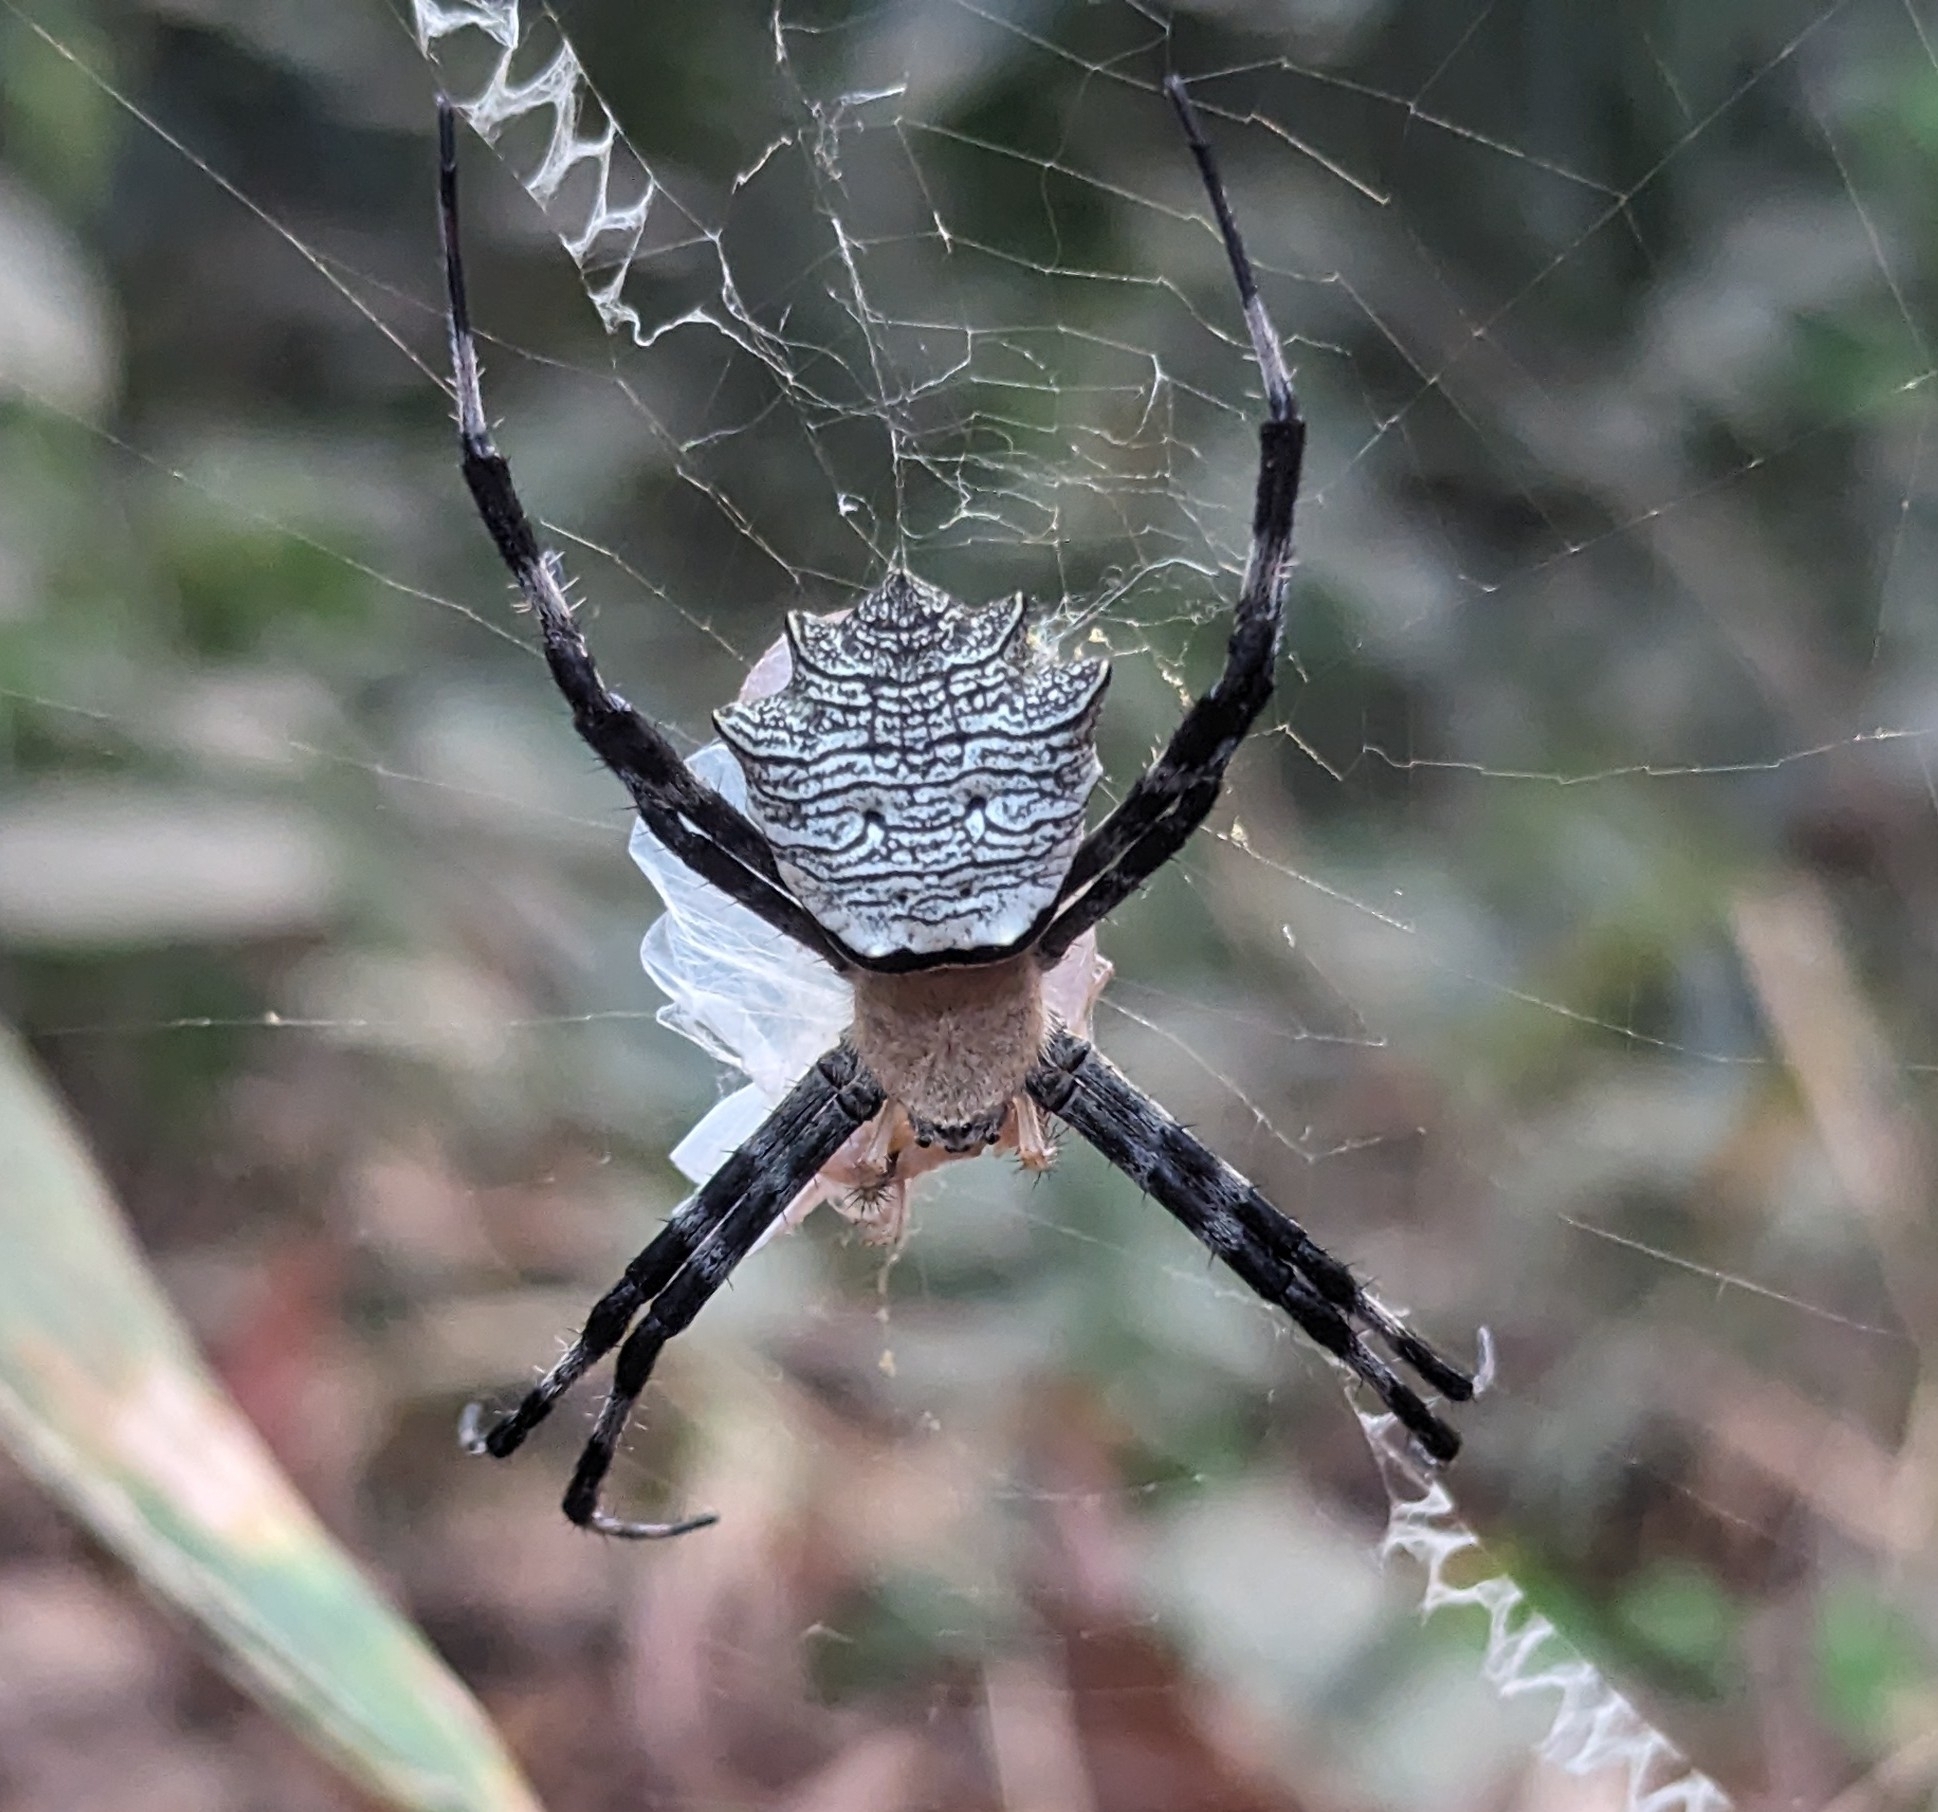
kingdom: Animalia
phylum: Arthropoda
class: Arachnida
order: Araneae
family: Araneidae
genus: Argiope
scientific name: Argiope flavipalpis
